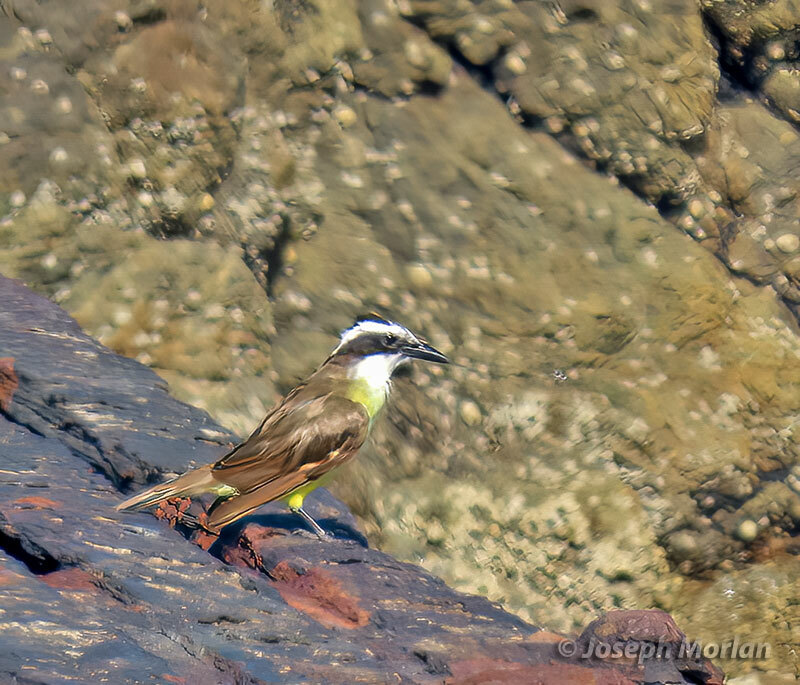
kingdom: Animalia
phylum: Chordata
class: Aves
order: Passeriformes
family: Tyrannidae
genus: Pitangus
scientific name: Pitangus sulphuratus
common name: Great kiskadee
